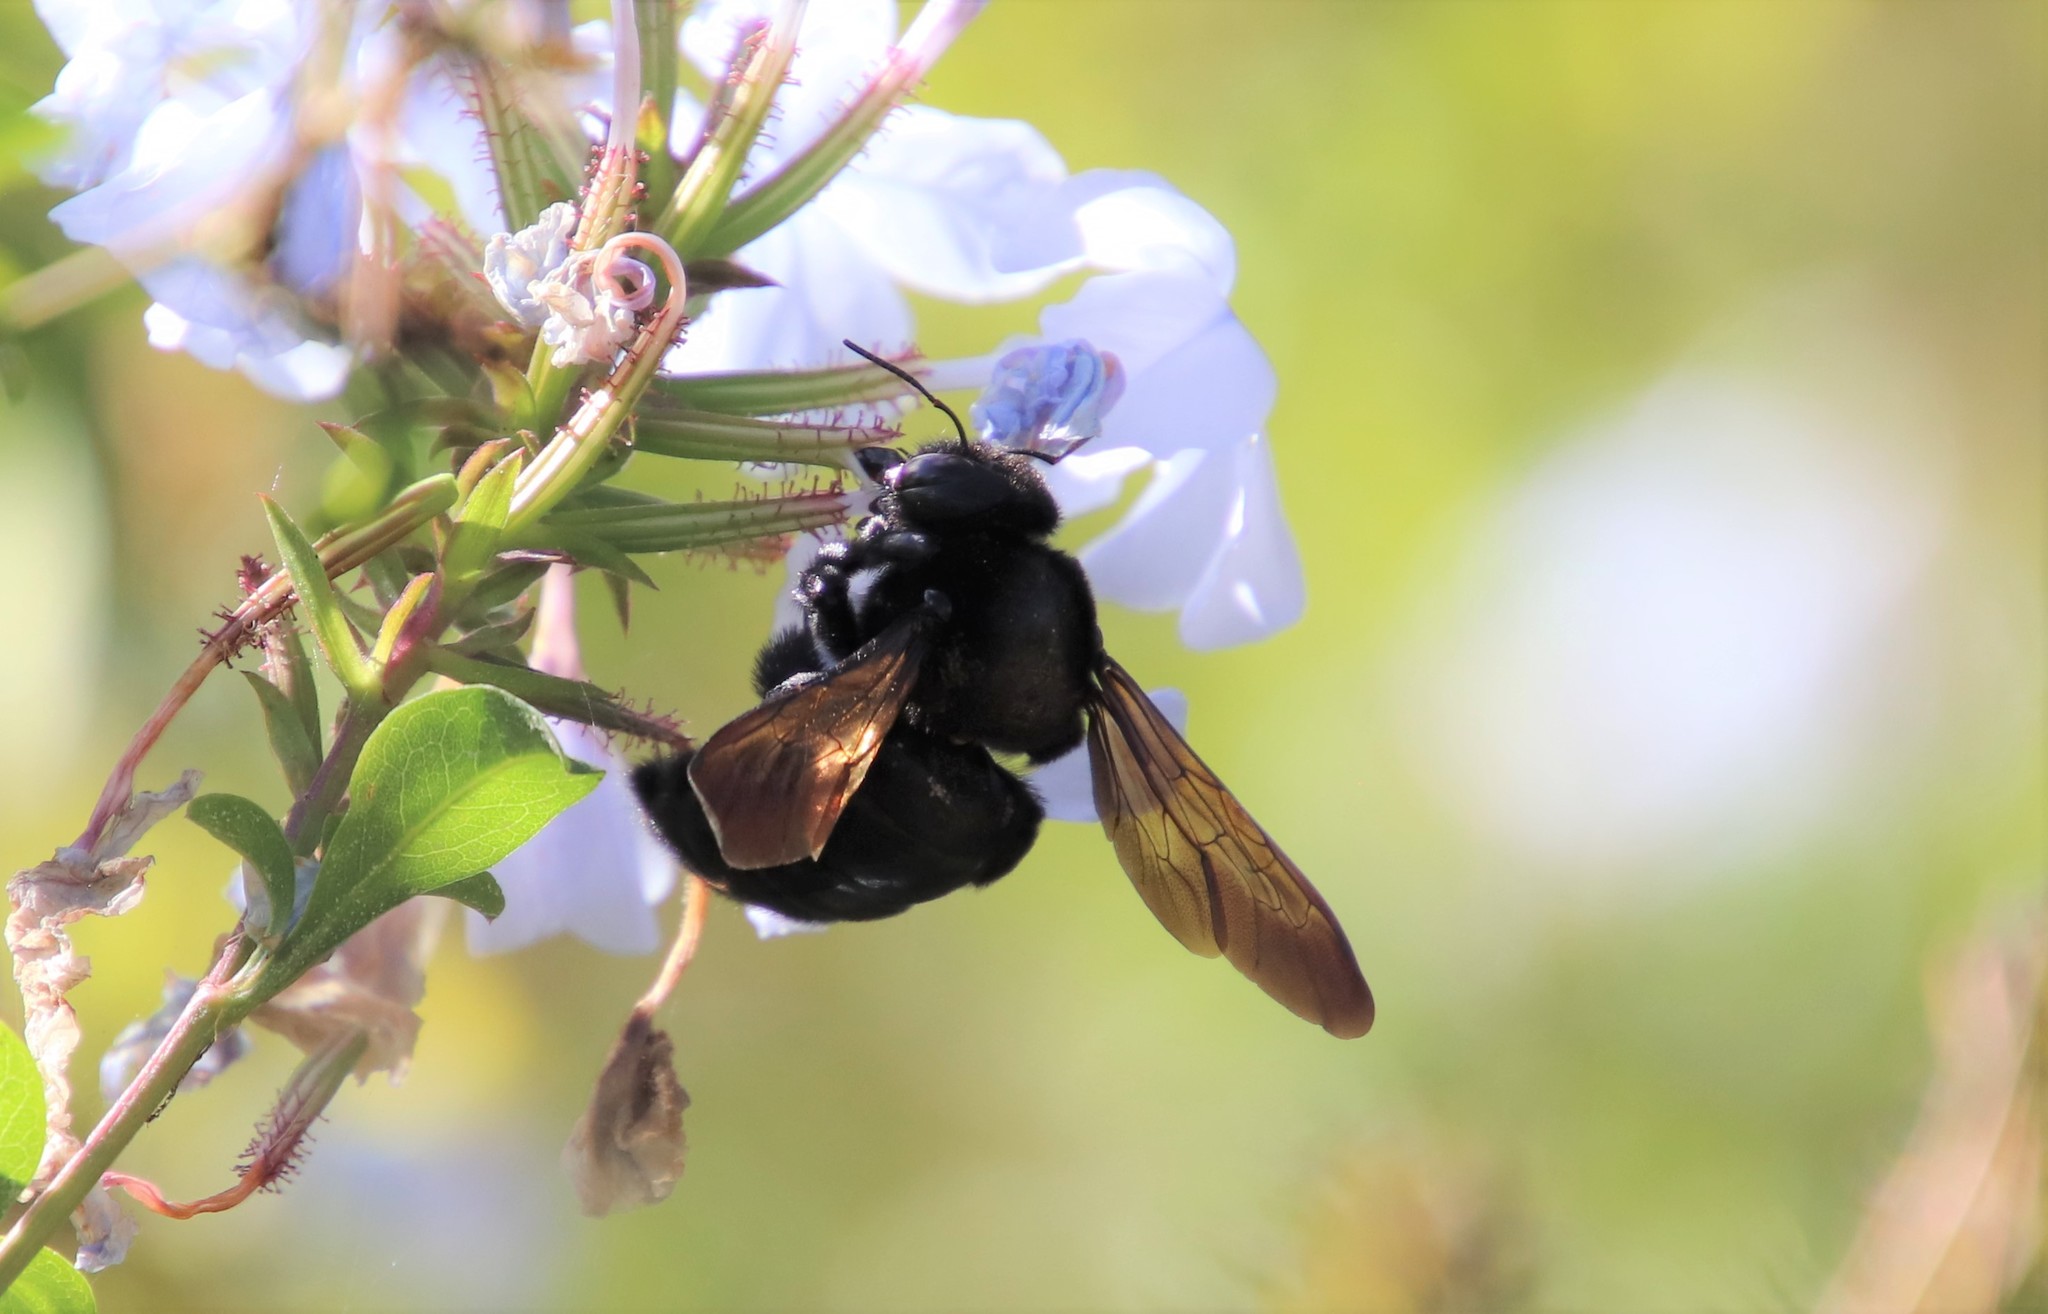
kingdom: Animalia
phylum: Arthropoda
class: Insecta
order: Hymenoptera
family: Apidae
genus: Xylocopa
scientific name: Xylocopa sonorina
